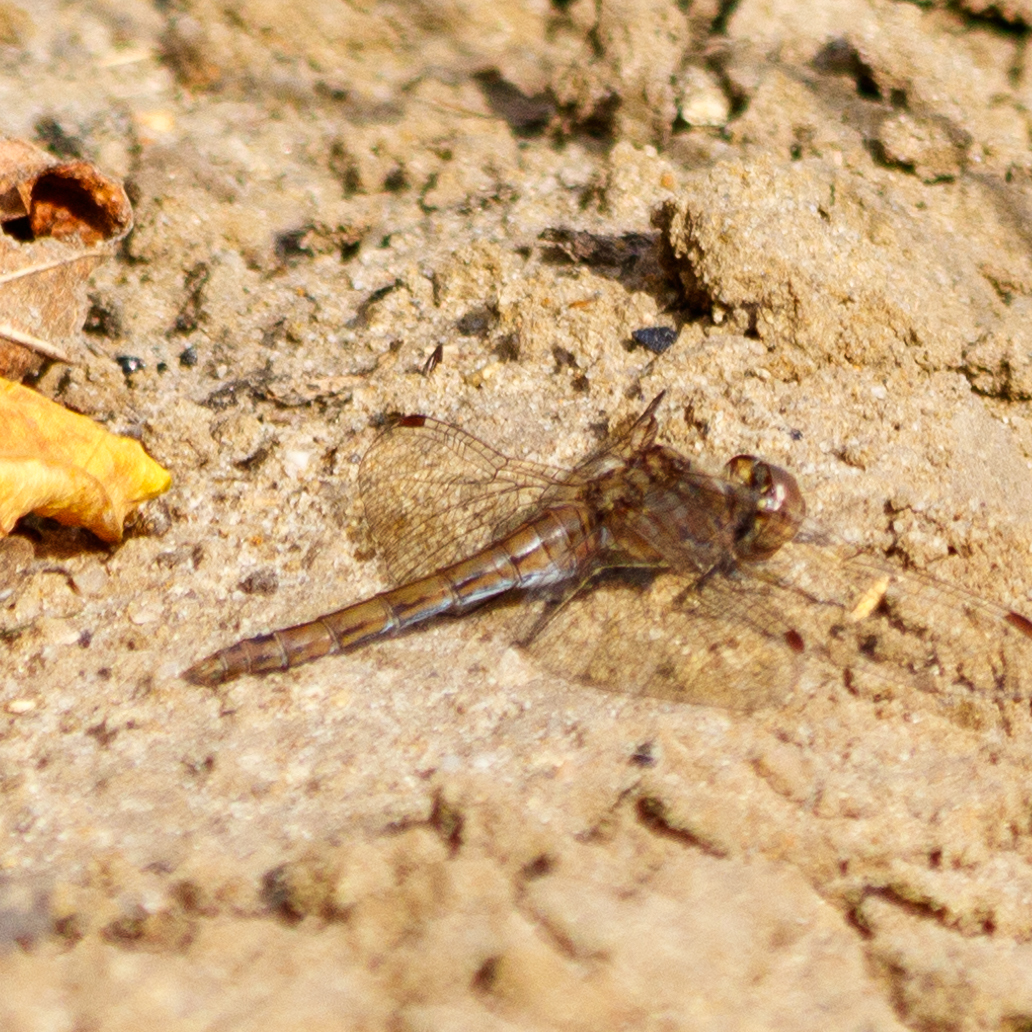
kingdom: Animalia
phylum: Arthropoda
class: Insecta
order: Odonata
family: Libellulidae
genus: Sympetrum
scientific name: Sympetrum vulgatum
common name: Vagrant darter
